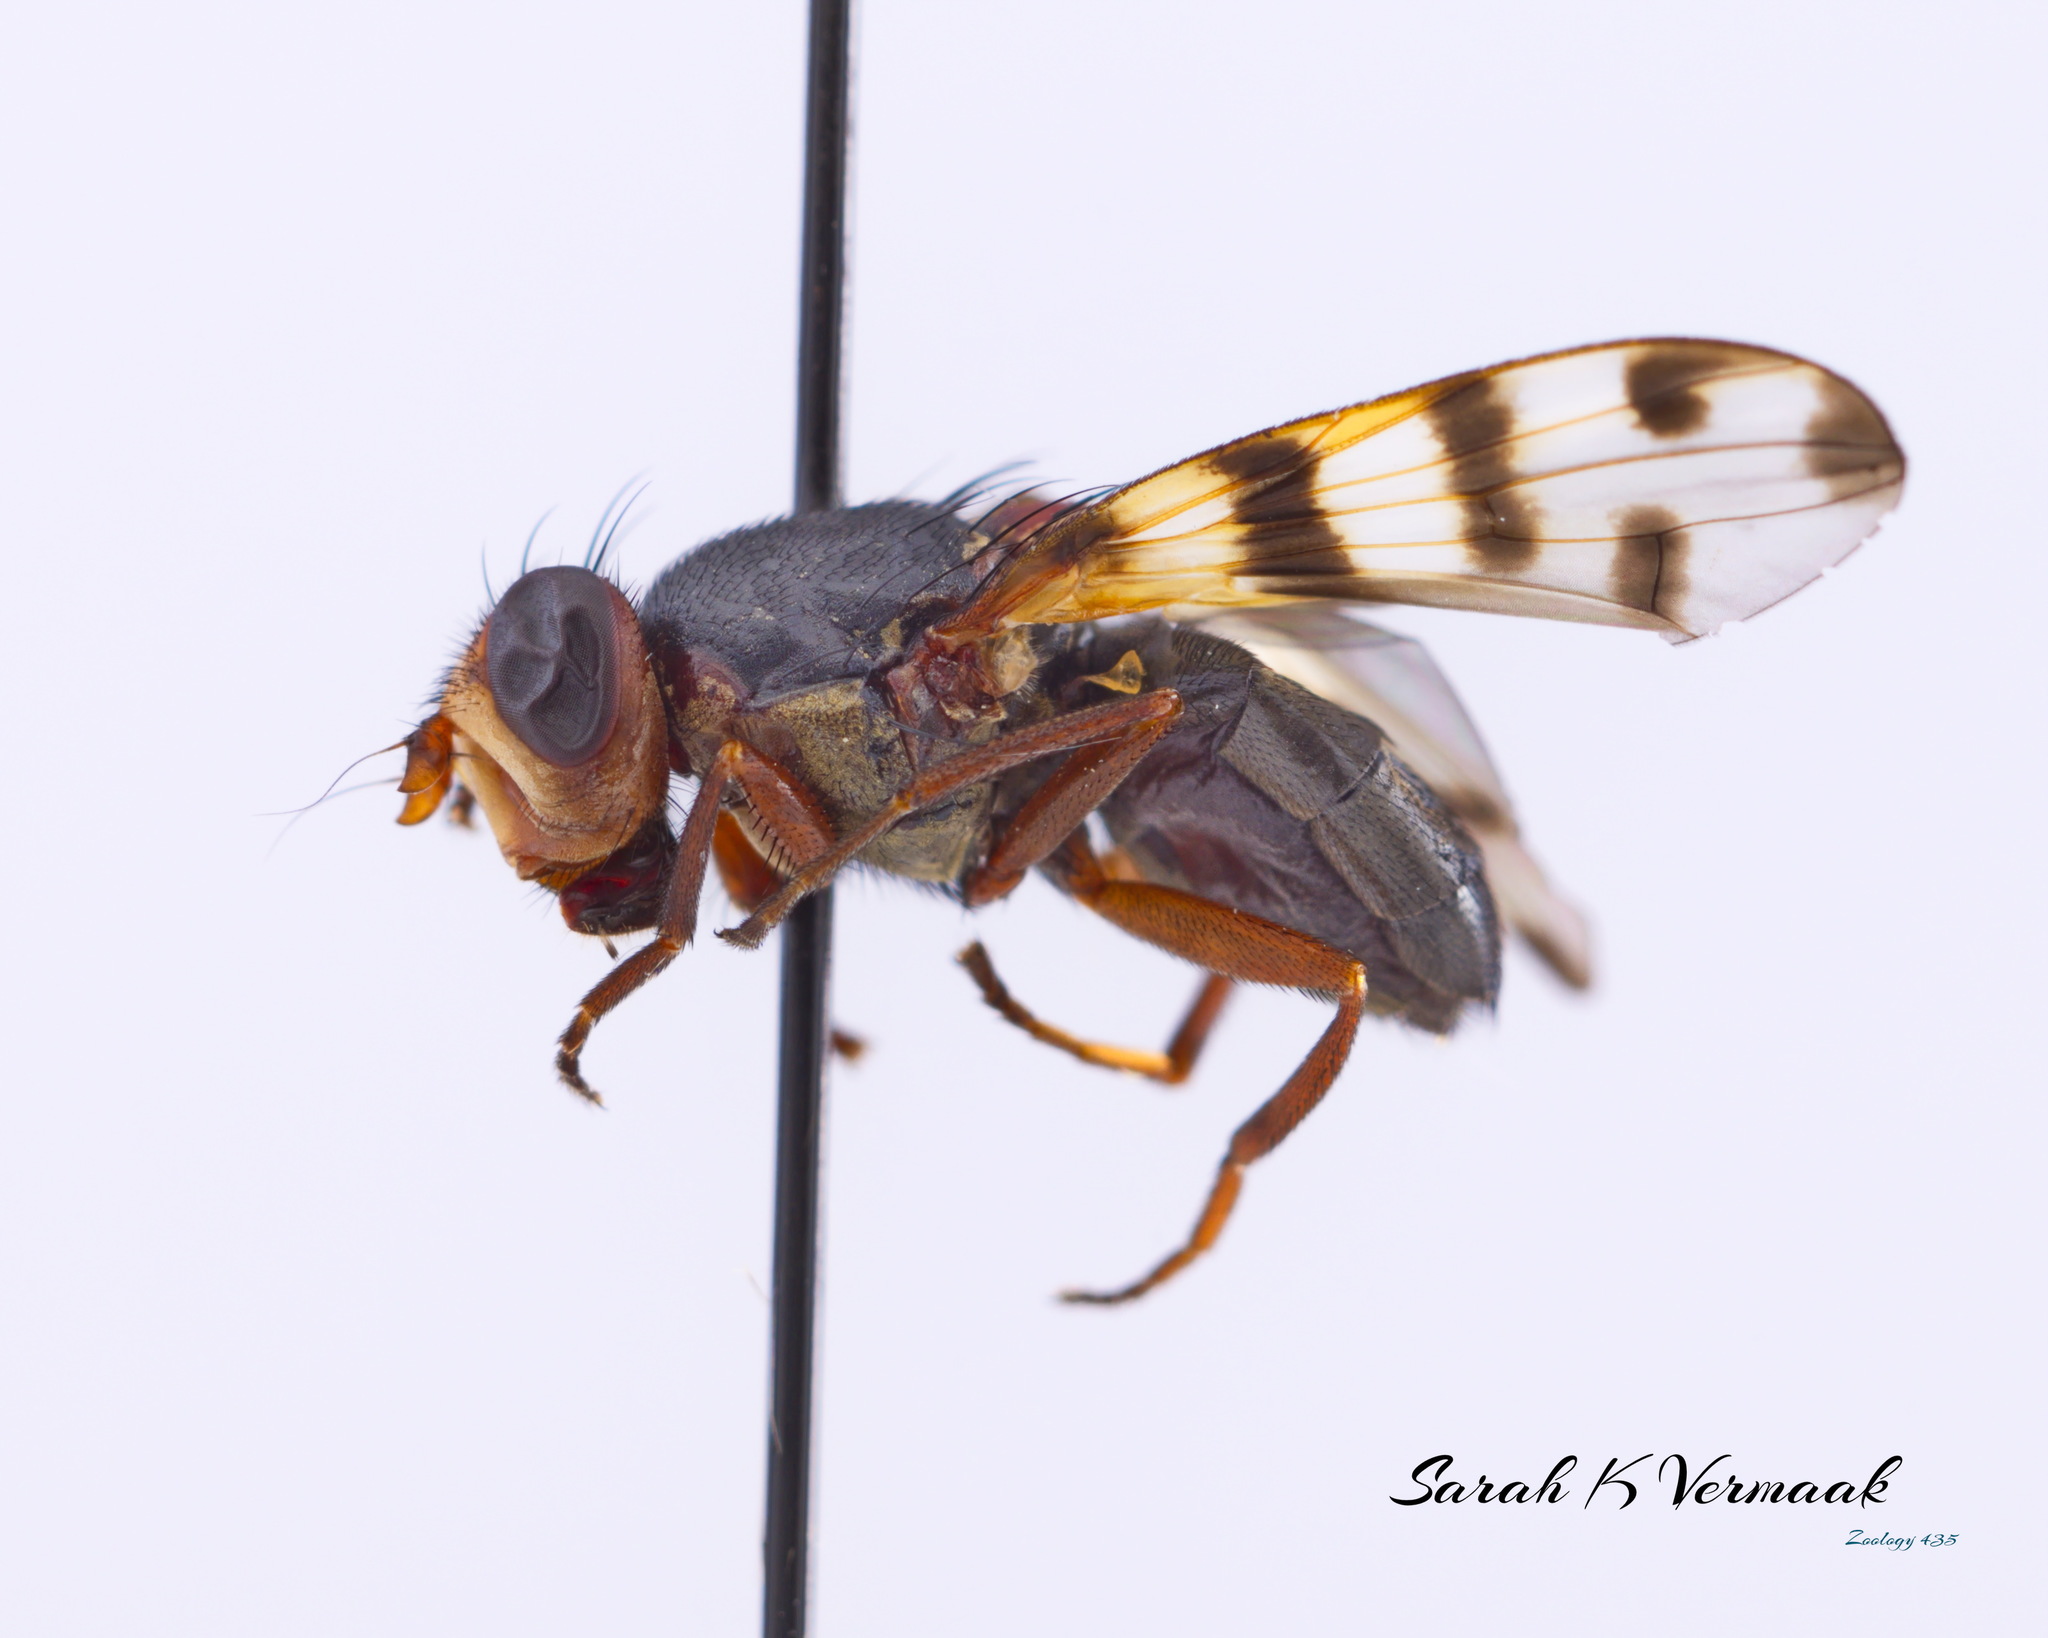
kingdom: Animalia
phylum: Arthropoda
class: Insecta
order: Diptera
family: Ulidiidae
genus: Ceroxys
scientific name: Ceroxys latiusculus
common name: Picture-winged fly
